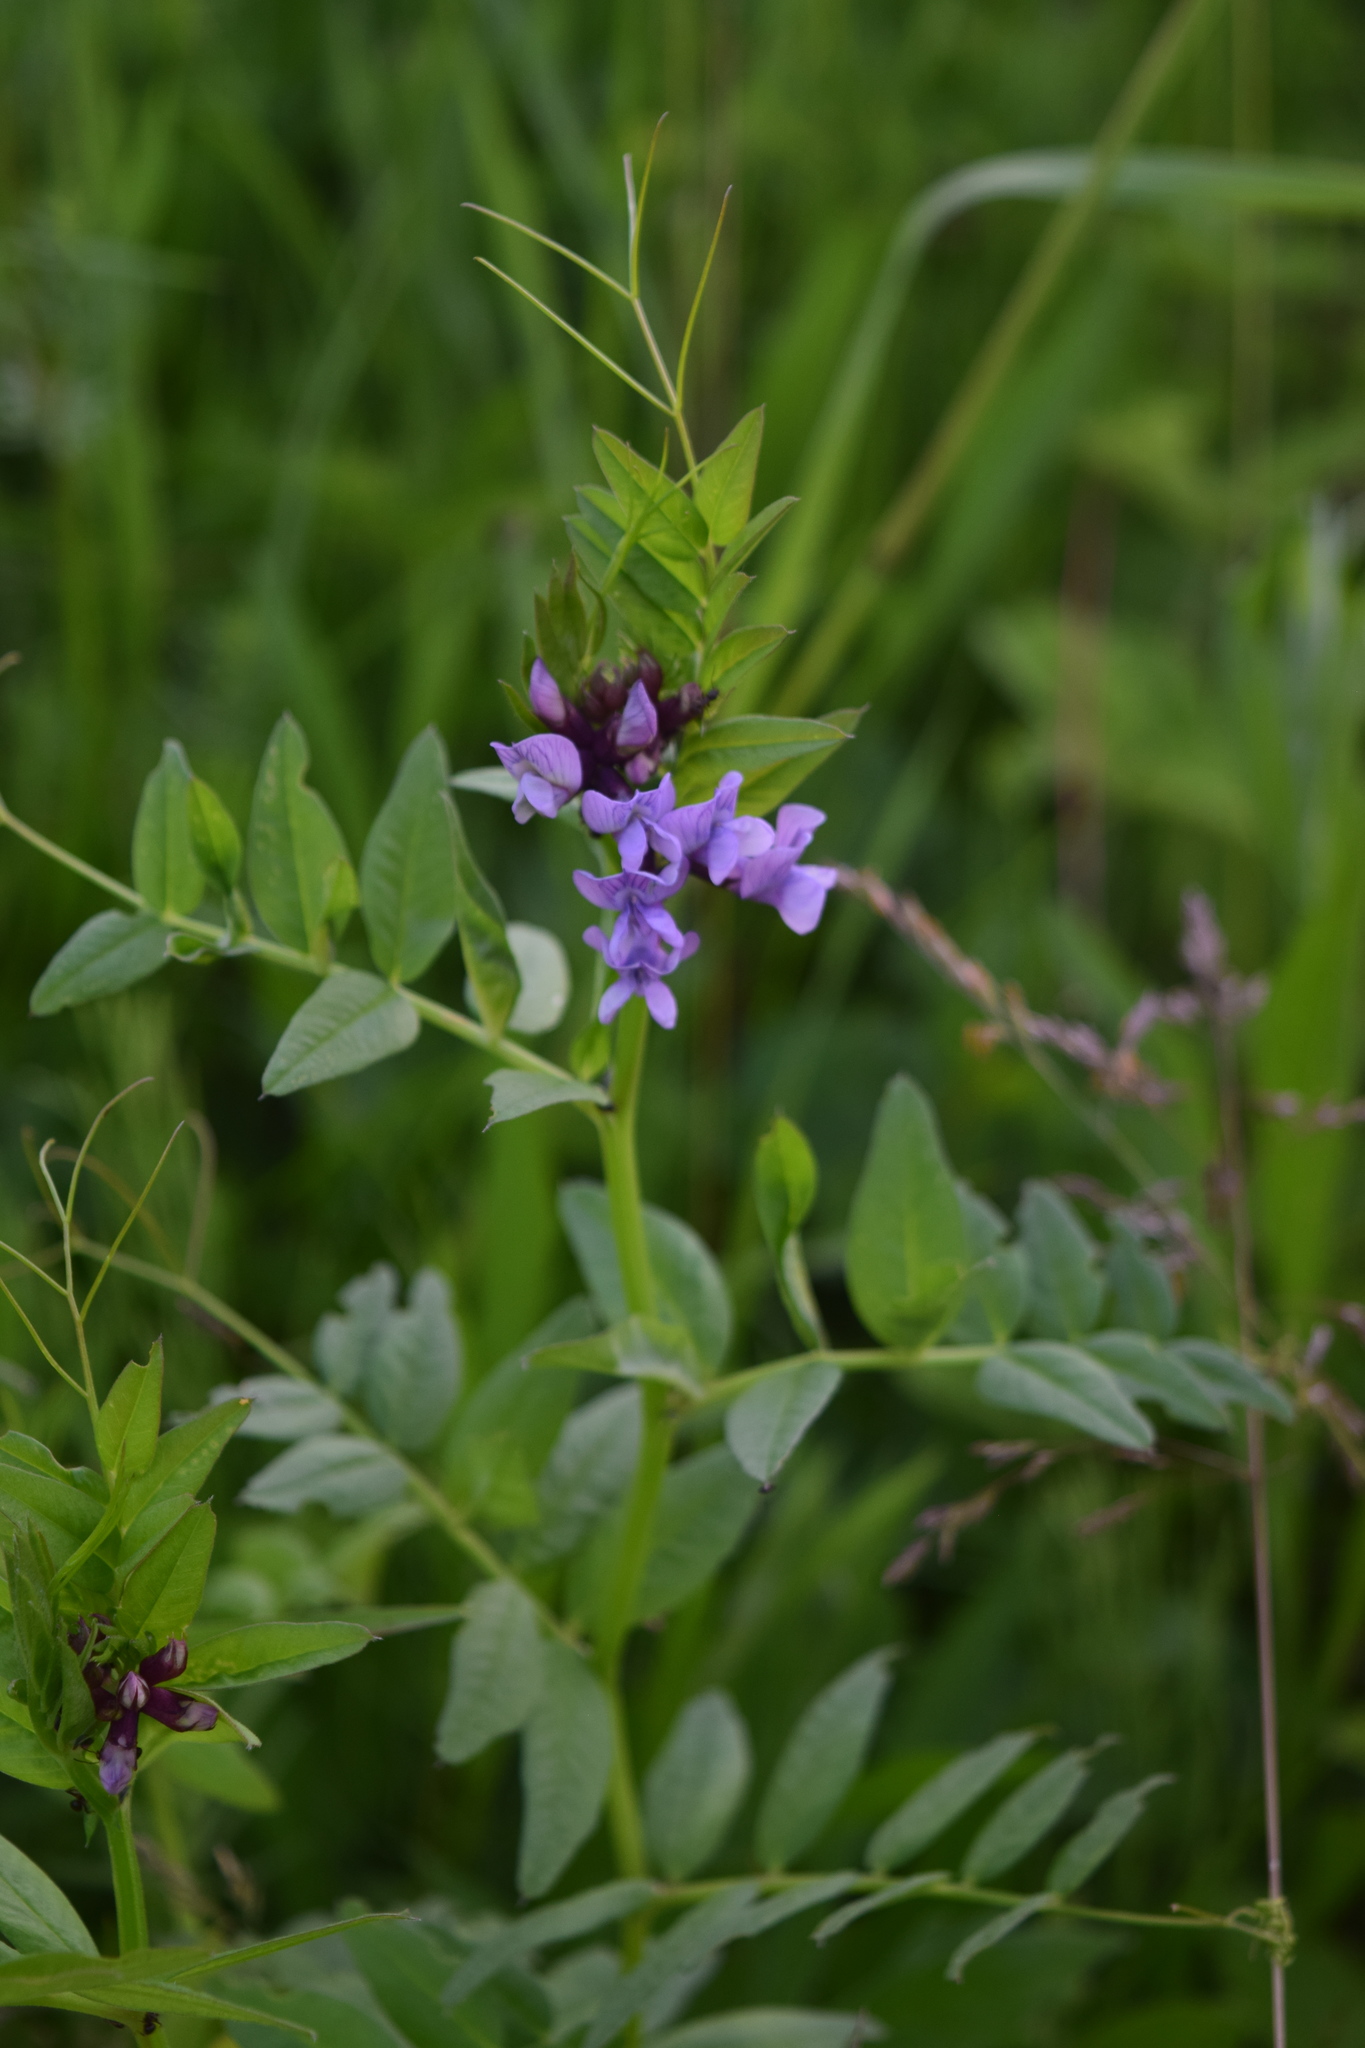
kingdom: Plantae
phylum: Tracheophyta
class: Magnoliopsida
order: Fabales
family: Fabaceae
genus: Vicia
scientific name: Vicia sepium
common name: Bush vetch
